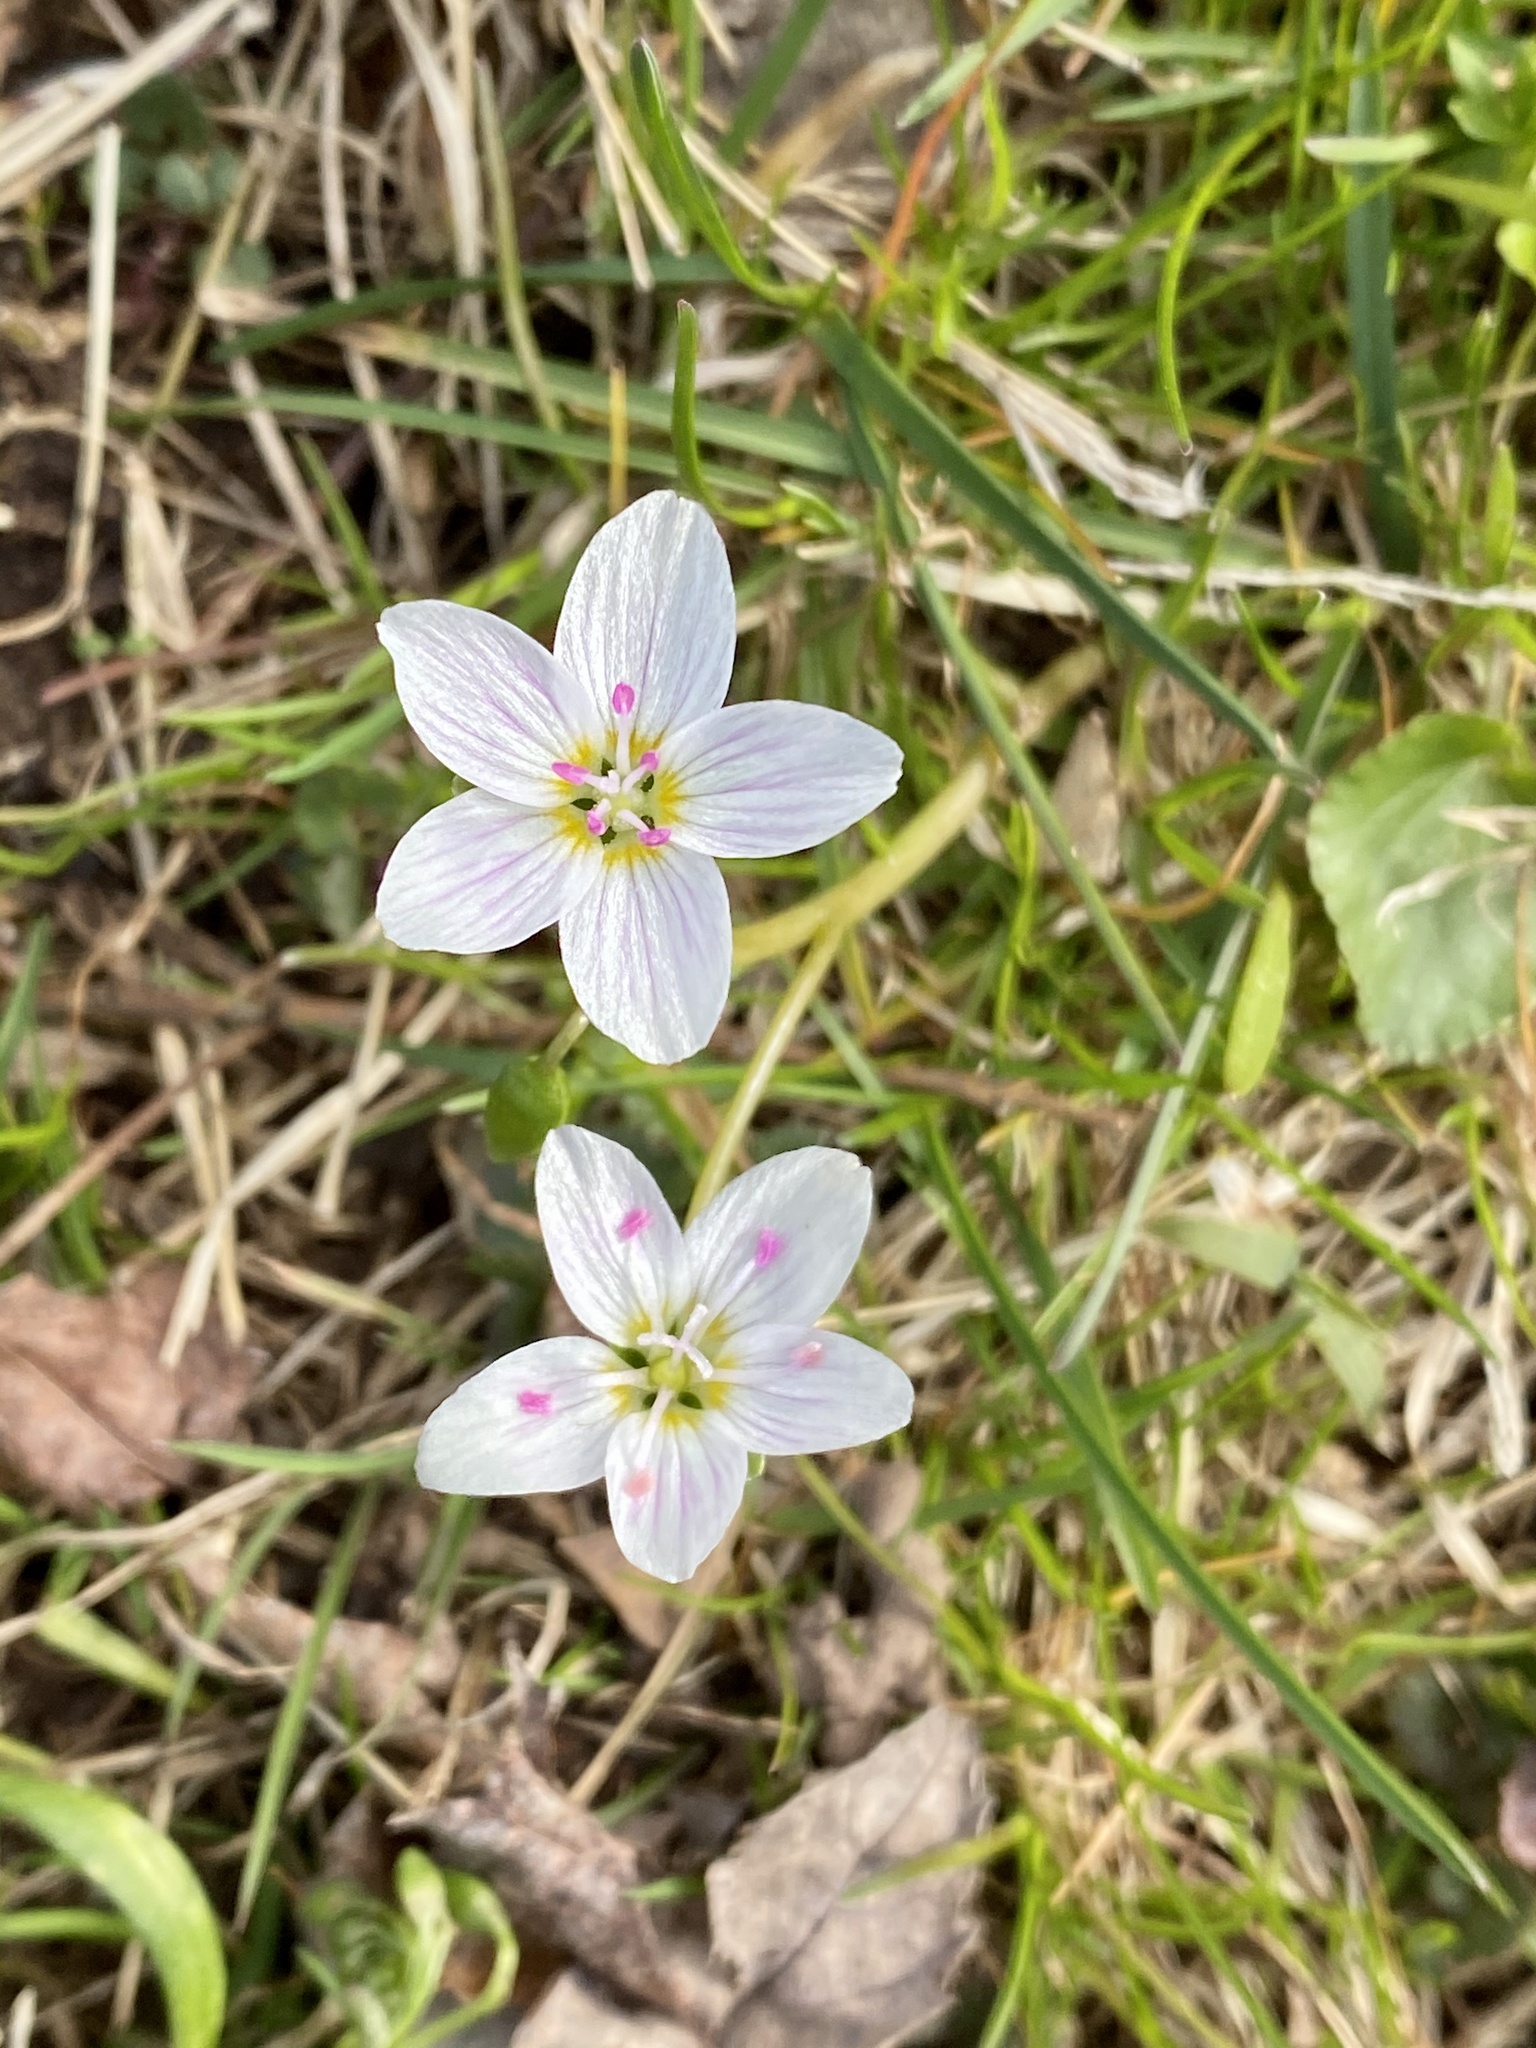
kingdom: Plantae
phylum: Tracheophyta
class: Magnoliopsida
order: Caryophyllales
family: Montiaceae
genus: Claytonia
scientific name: Claytonia virginica
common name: Virginia springbeauty
